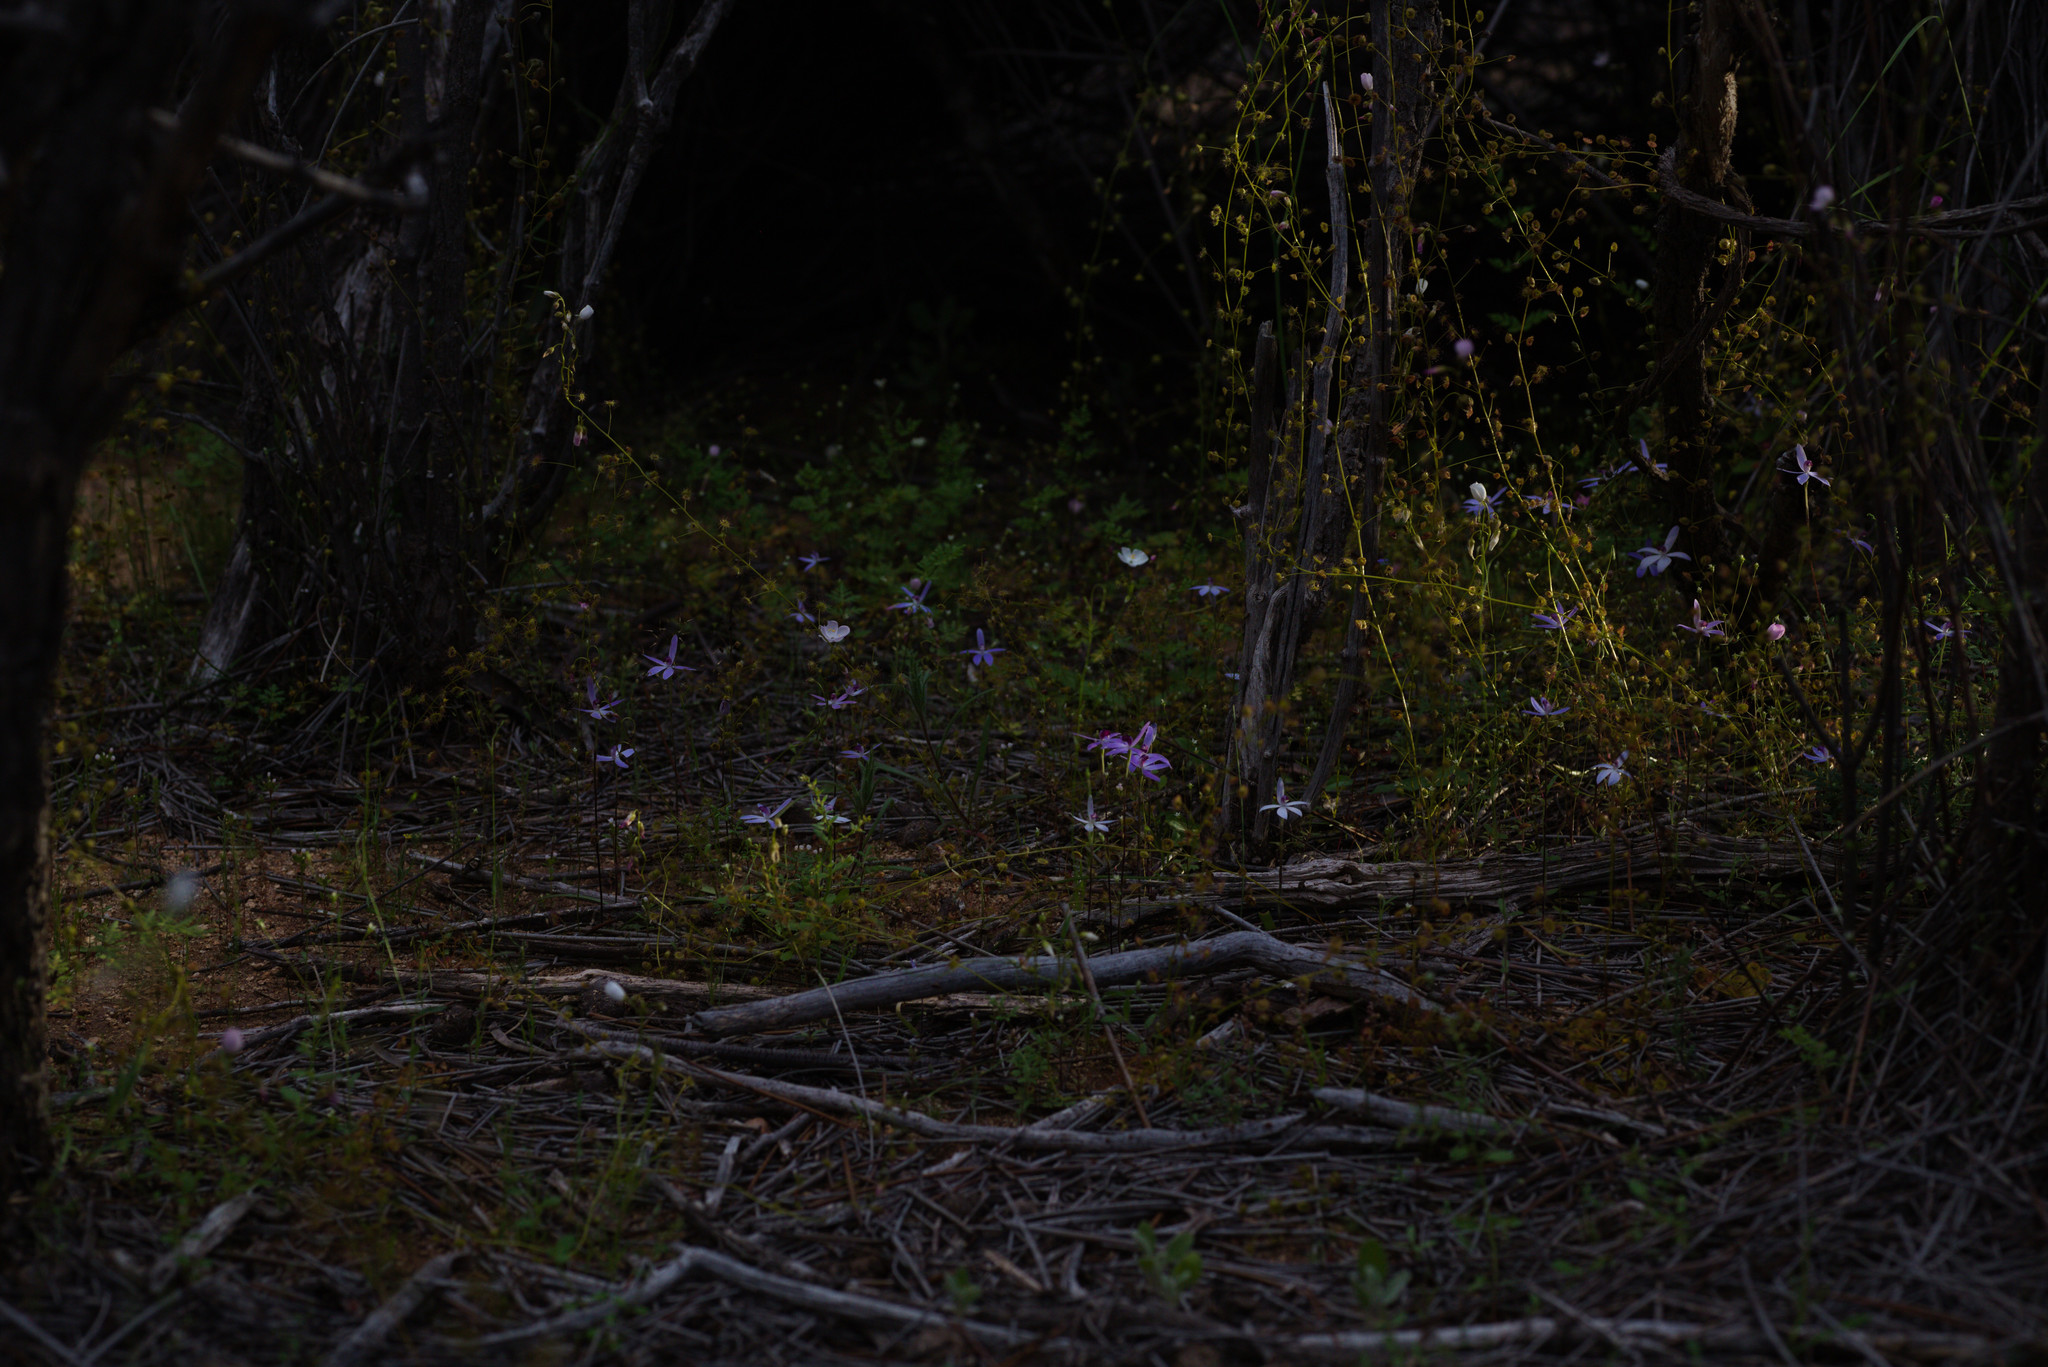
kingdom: Plantae
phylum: Tracheophyta
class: Magnoliopsida
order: Caryophyllales
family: Droseraceae
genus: Drosera
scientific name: Drosera stricticaulis
